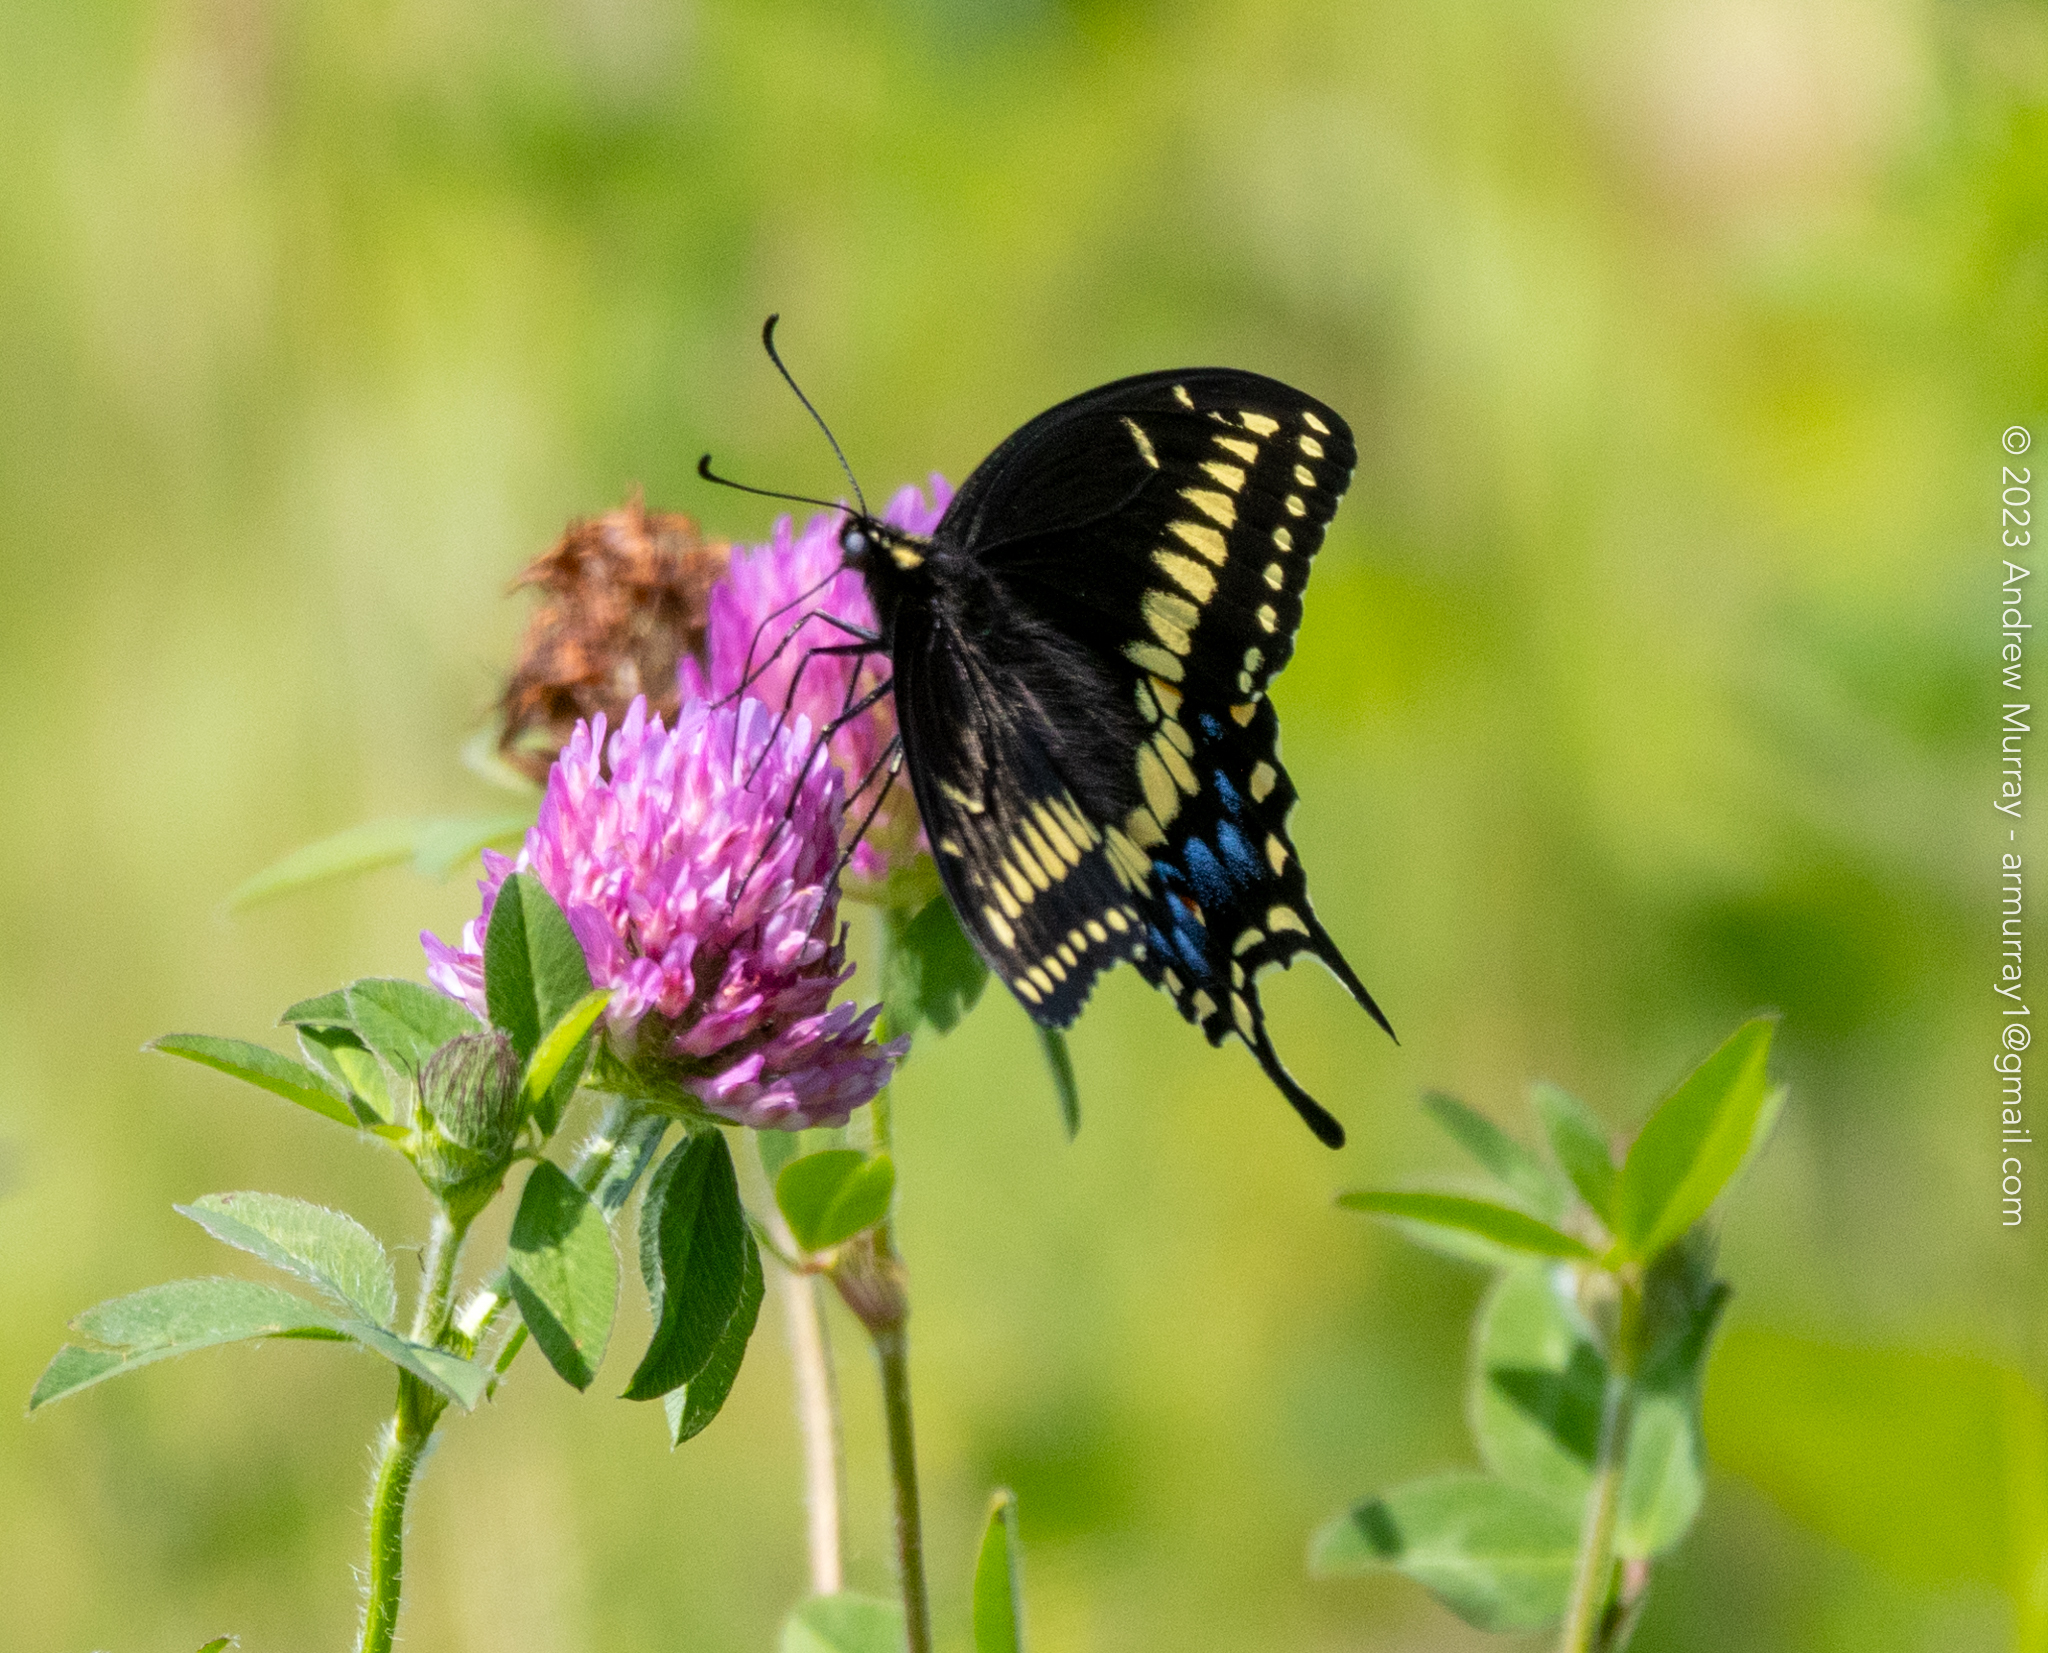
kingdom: Animalia
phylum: Arthropoda
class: Insecta
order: Lepidoptera
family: Papilionidae
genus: Papilio
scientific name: Papilio polyxenes
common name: Black swallowtail
